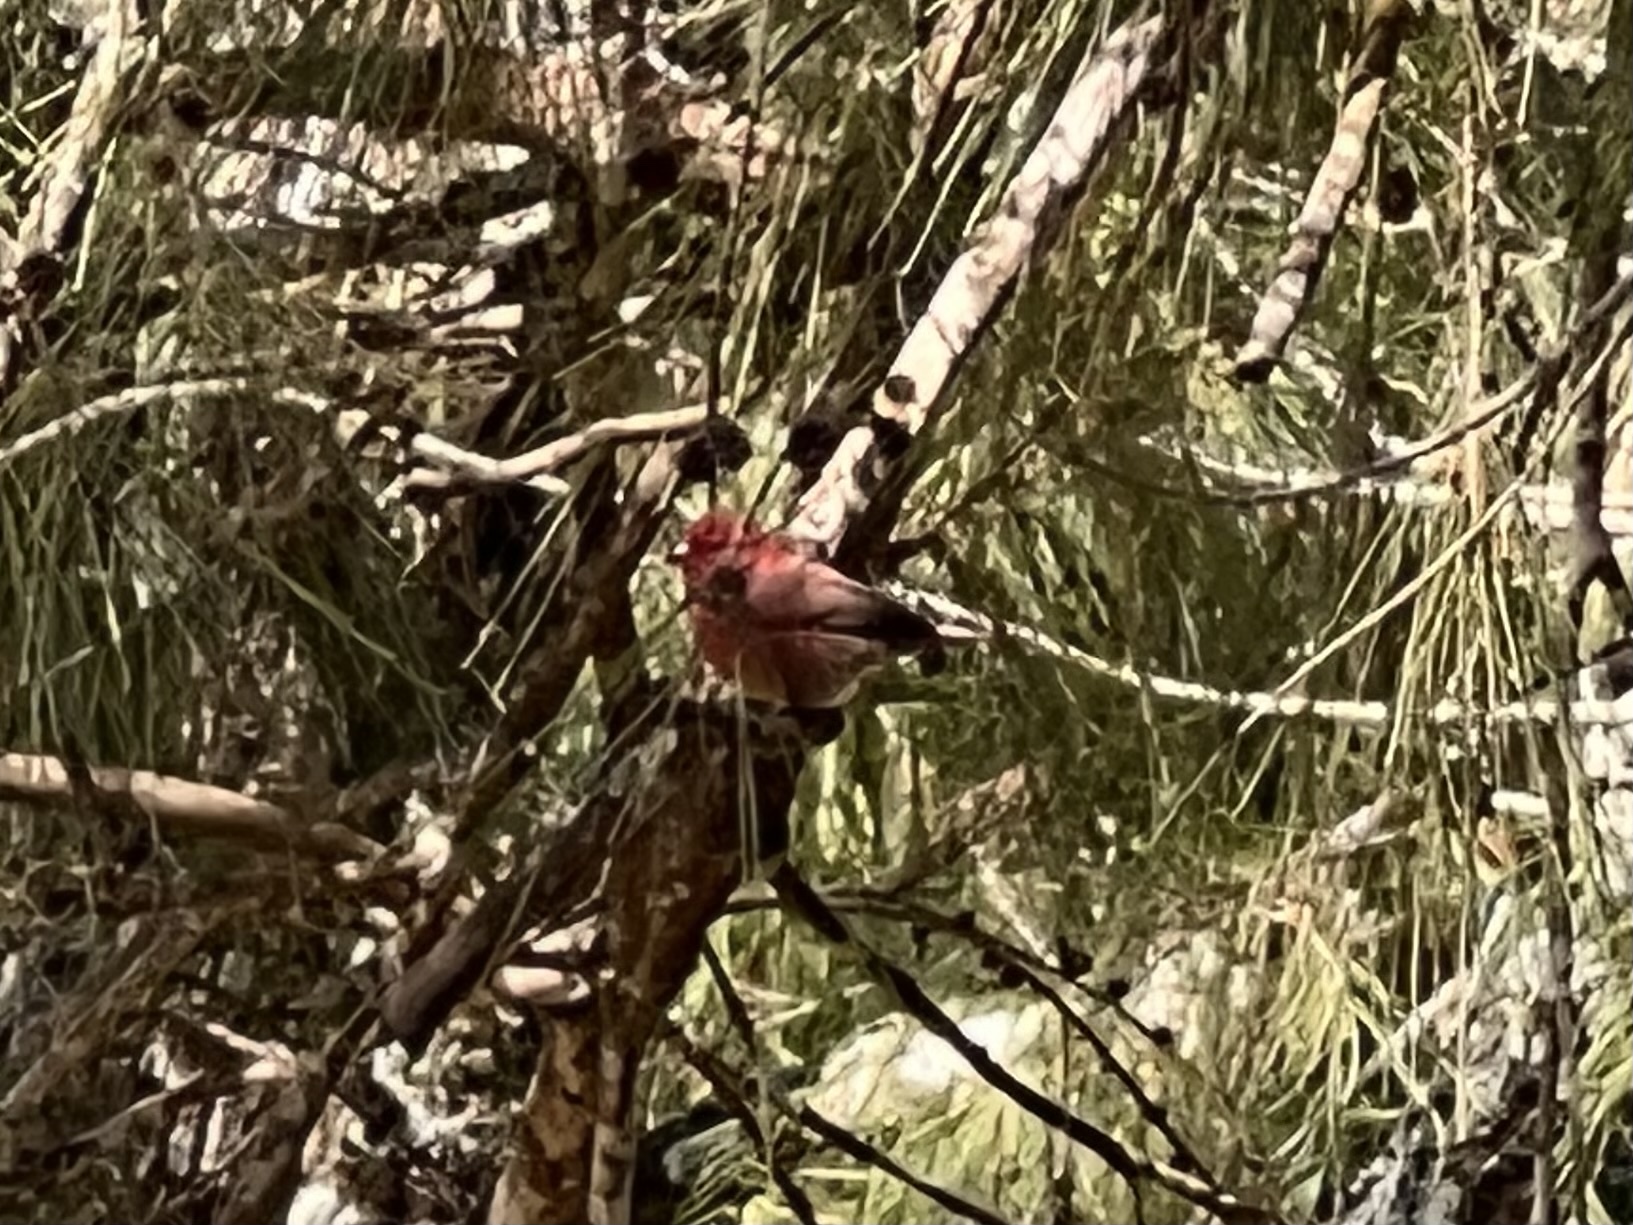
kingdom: Animalia
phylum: Chordata
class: Aves
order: Passeriformes
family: Estrildidae
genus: Lagonosticta
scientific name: Lagonosticta senegala
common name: Red-billed firefinch
